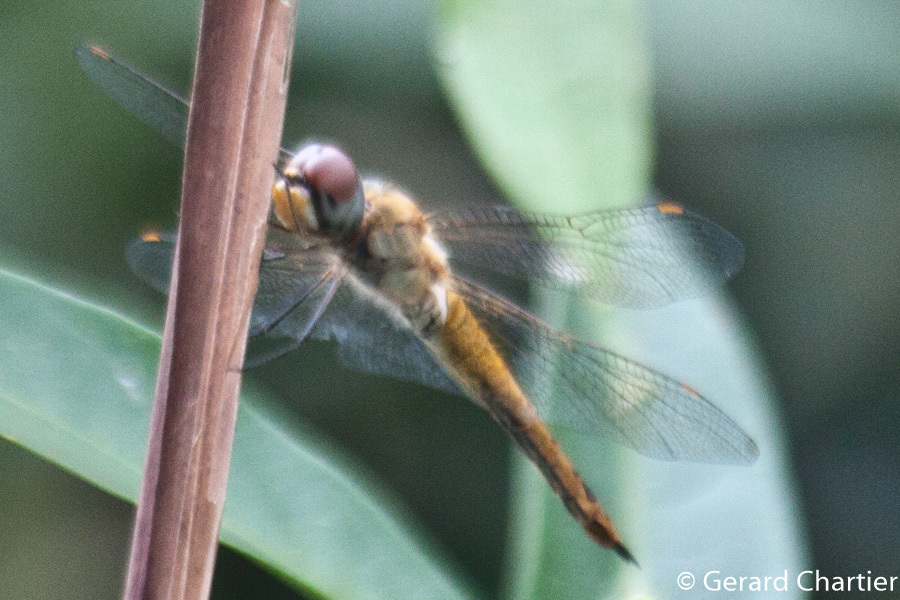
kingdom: Animalia
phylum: Arthropoda
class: Insecta
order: Odonata
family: Libellulidae
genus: Pantala
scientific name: Pantala flavescens
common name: Wandering glider
